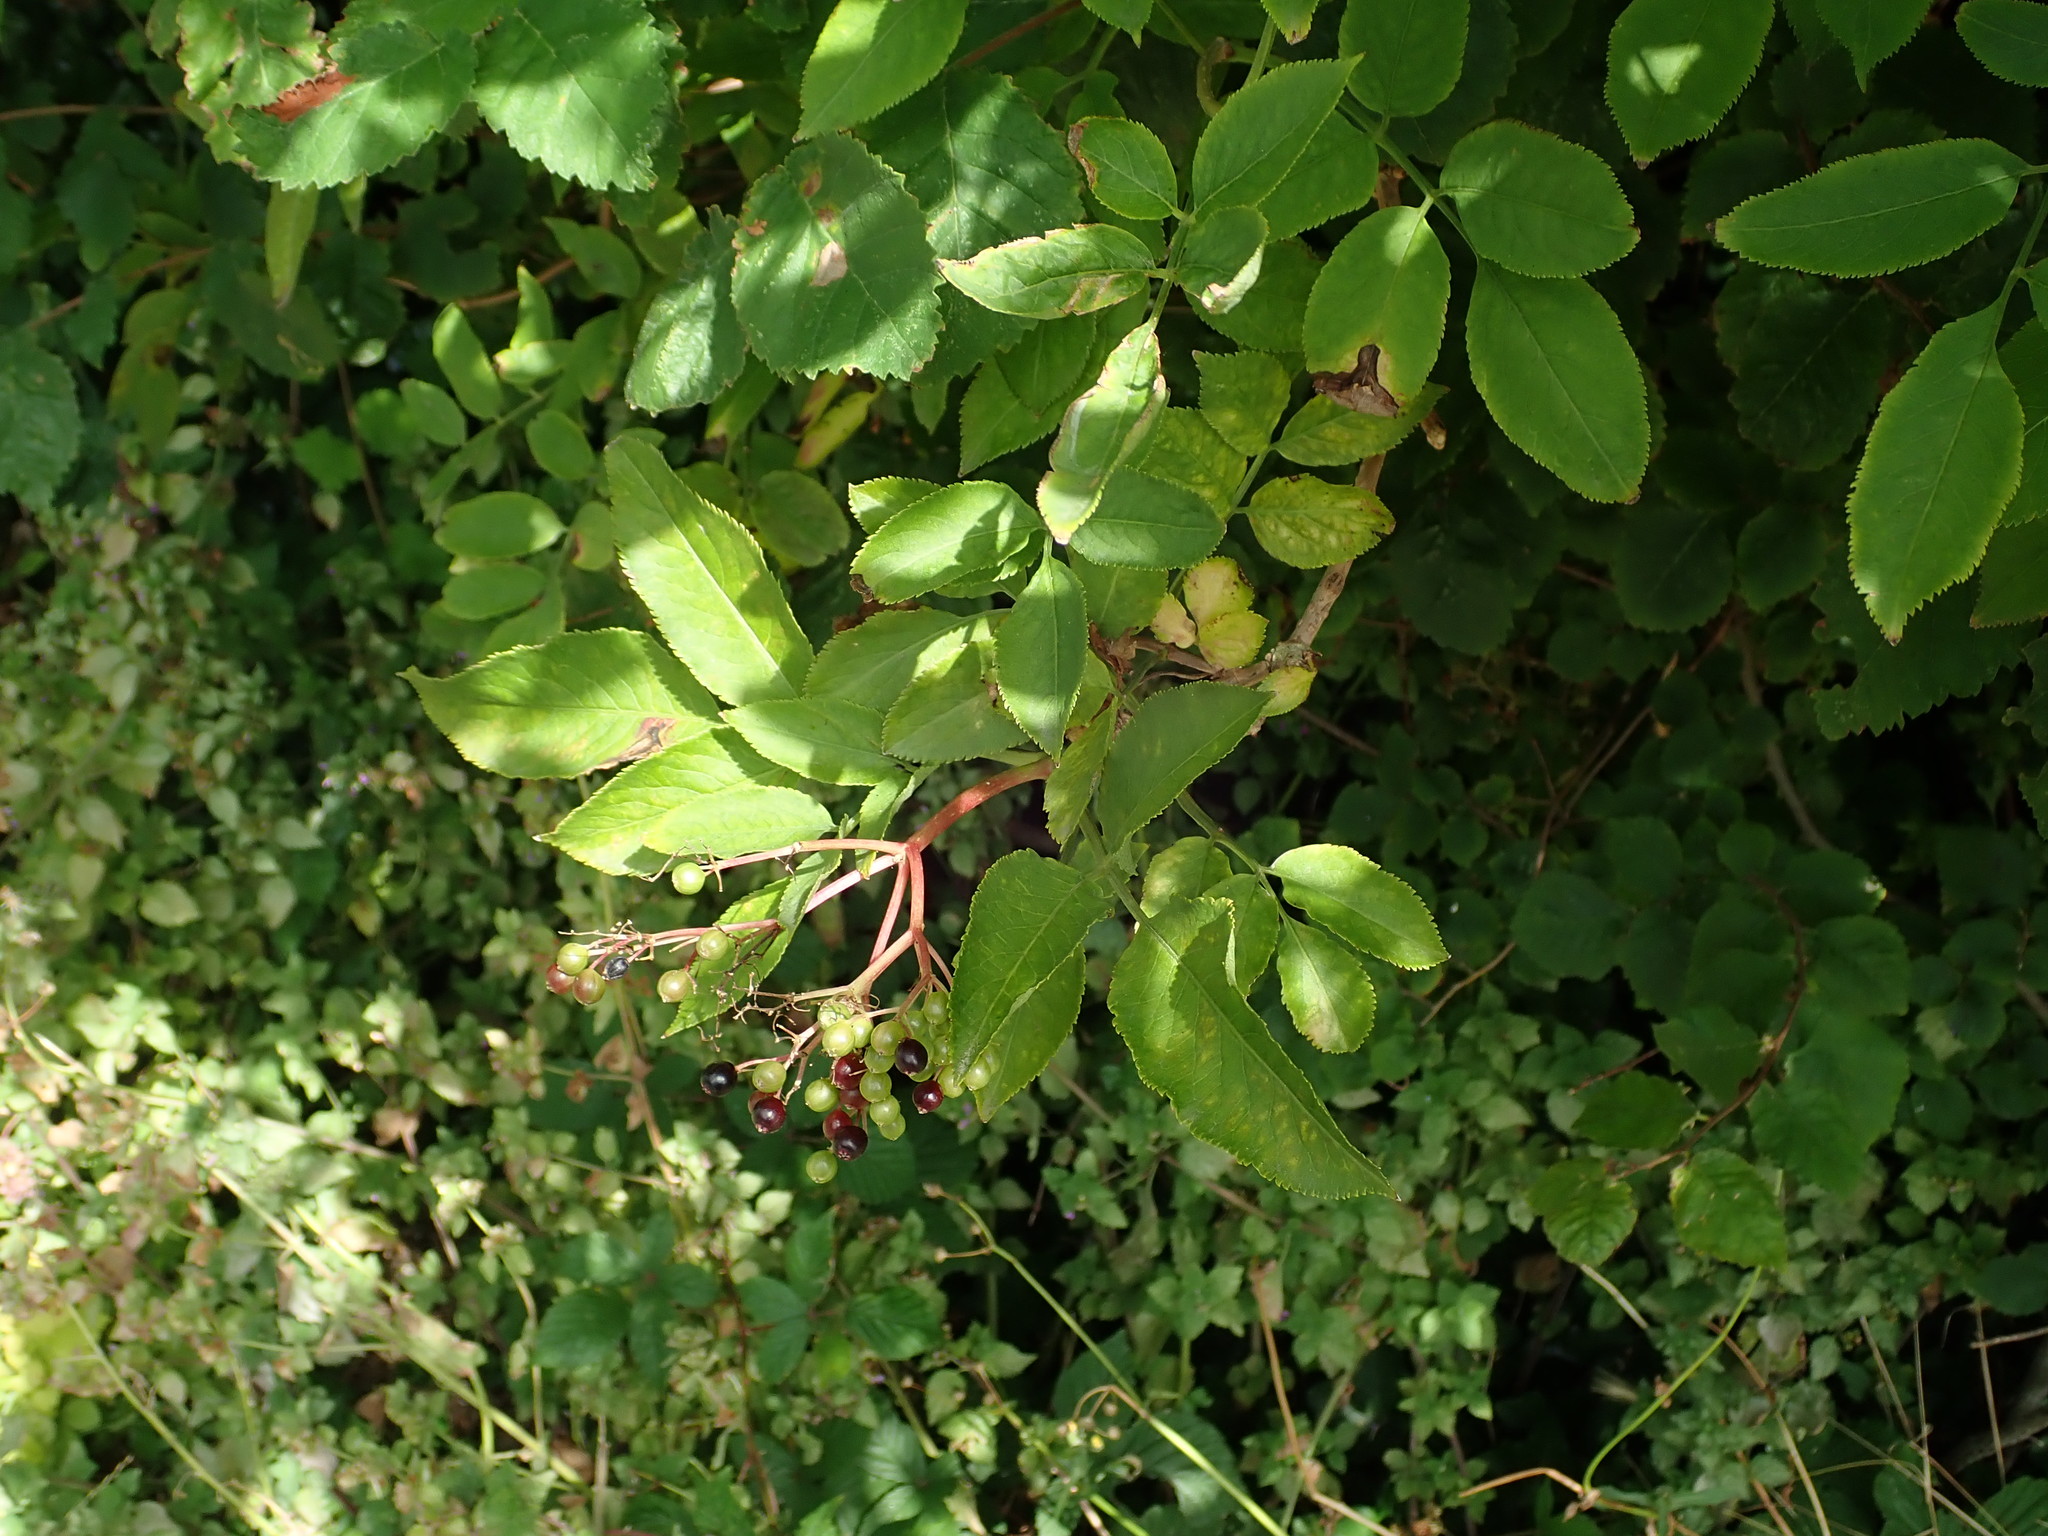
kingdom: Plantae
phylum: Tracheophyta
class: Magnoliopsida
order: Dipsacales
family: Viburnaceae
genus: Sambucus
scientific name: Sambucus nigra
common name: Elder
